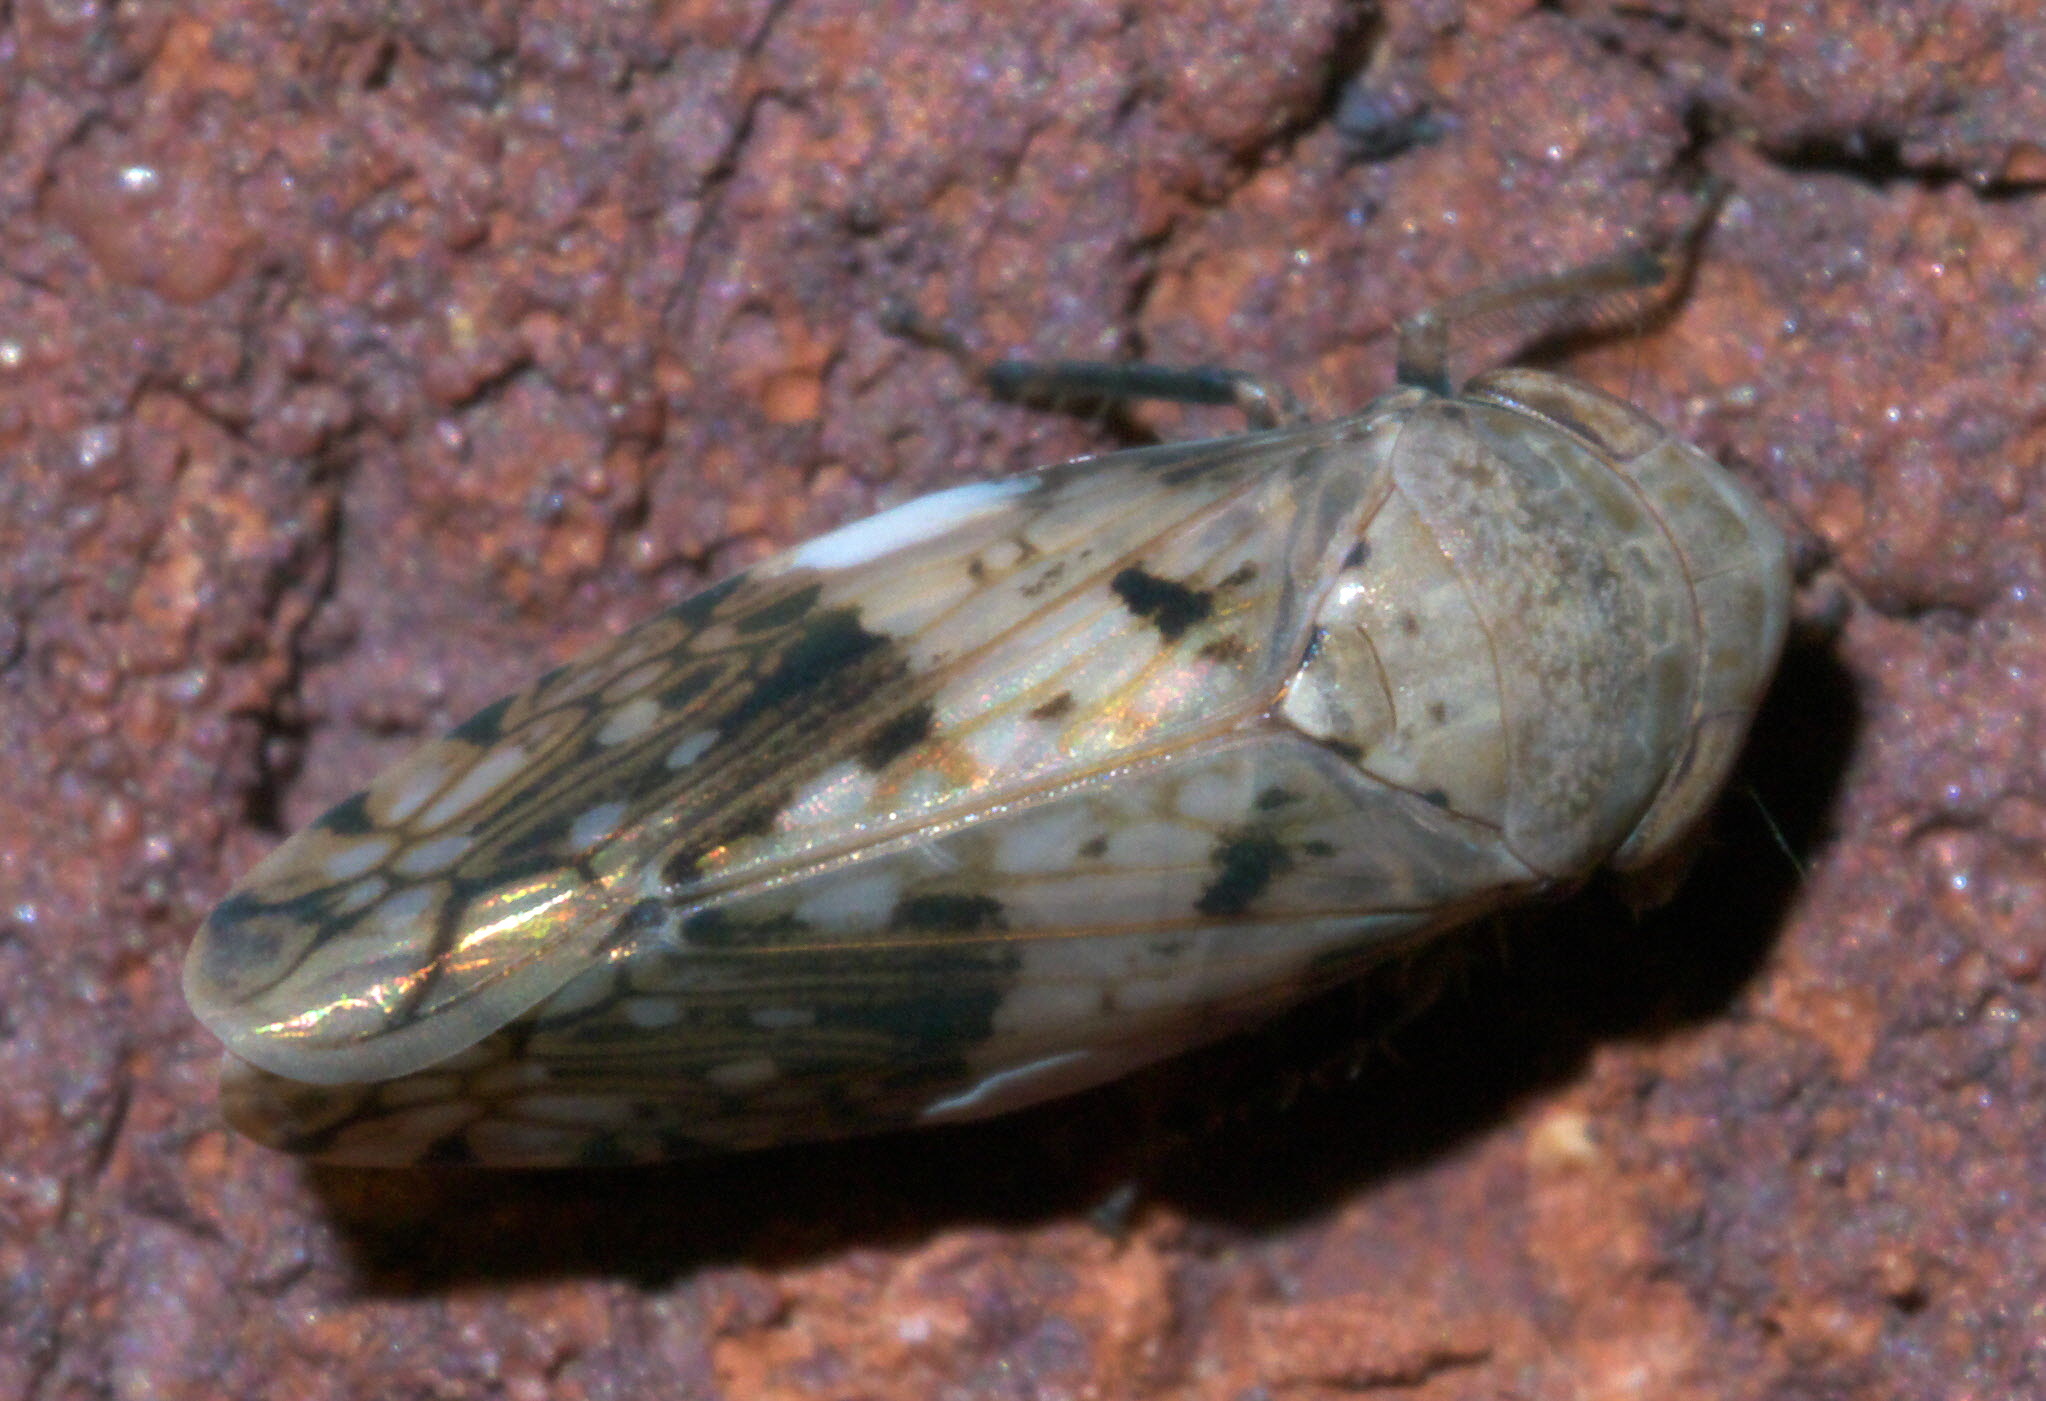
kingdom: Animalia
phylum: Arthropoda
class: Insecta
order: Hemiptera
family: Cicadellidae
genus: Menosoma
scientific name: Menosoma cinctum
